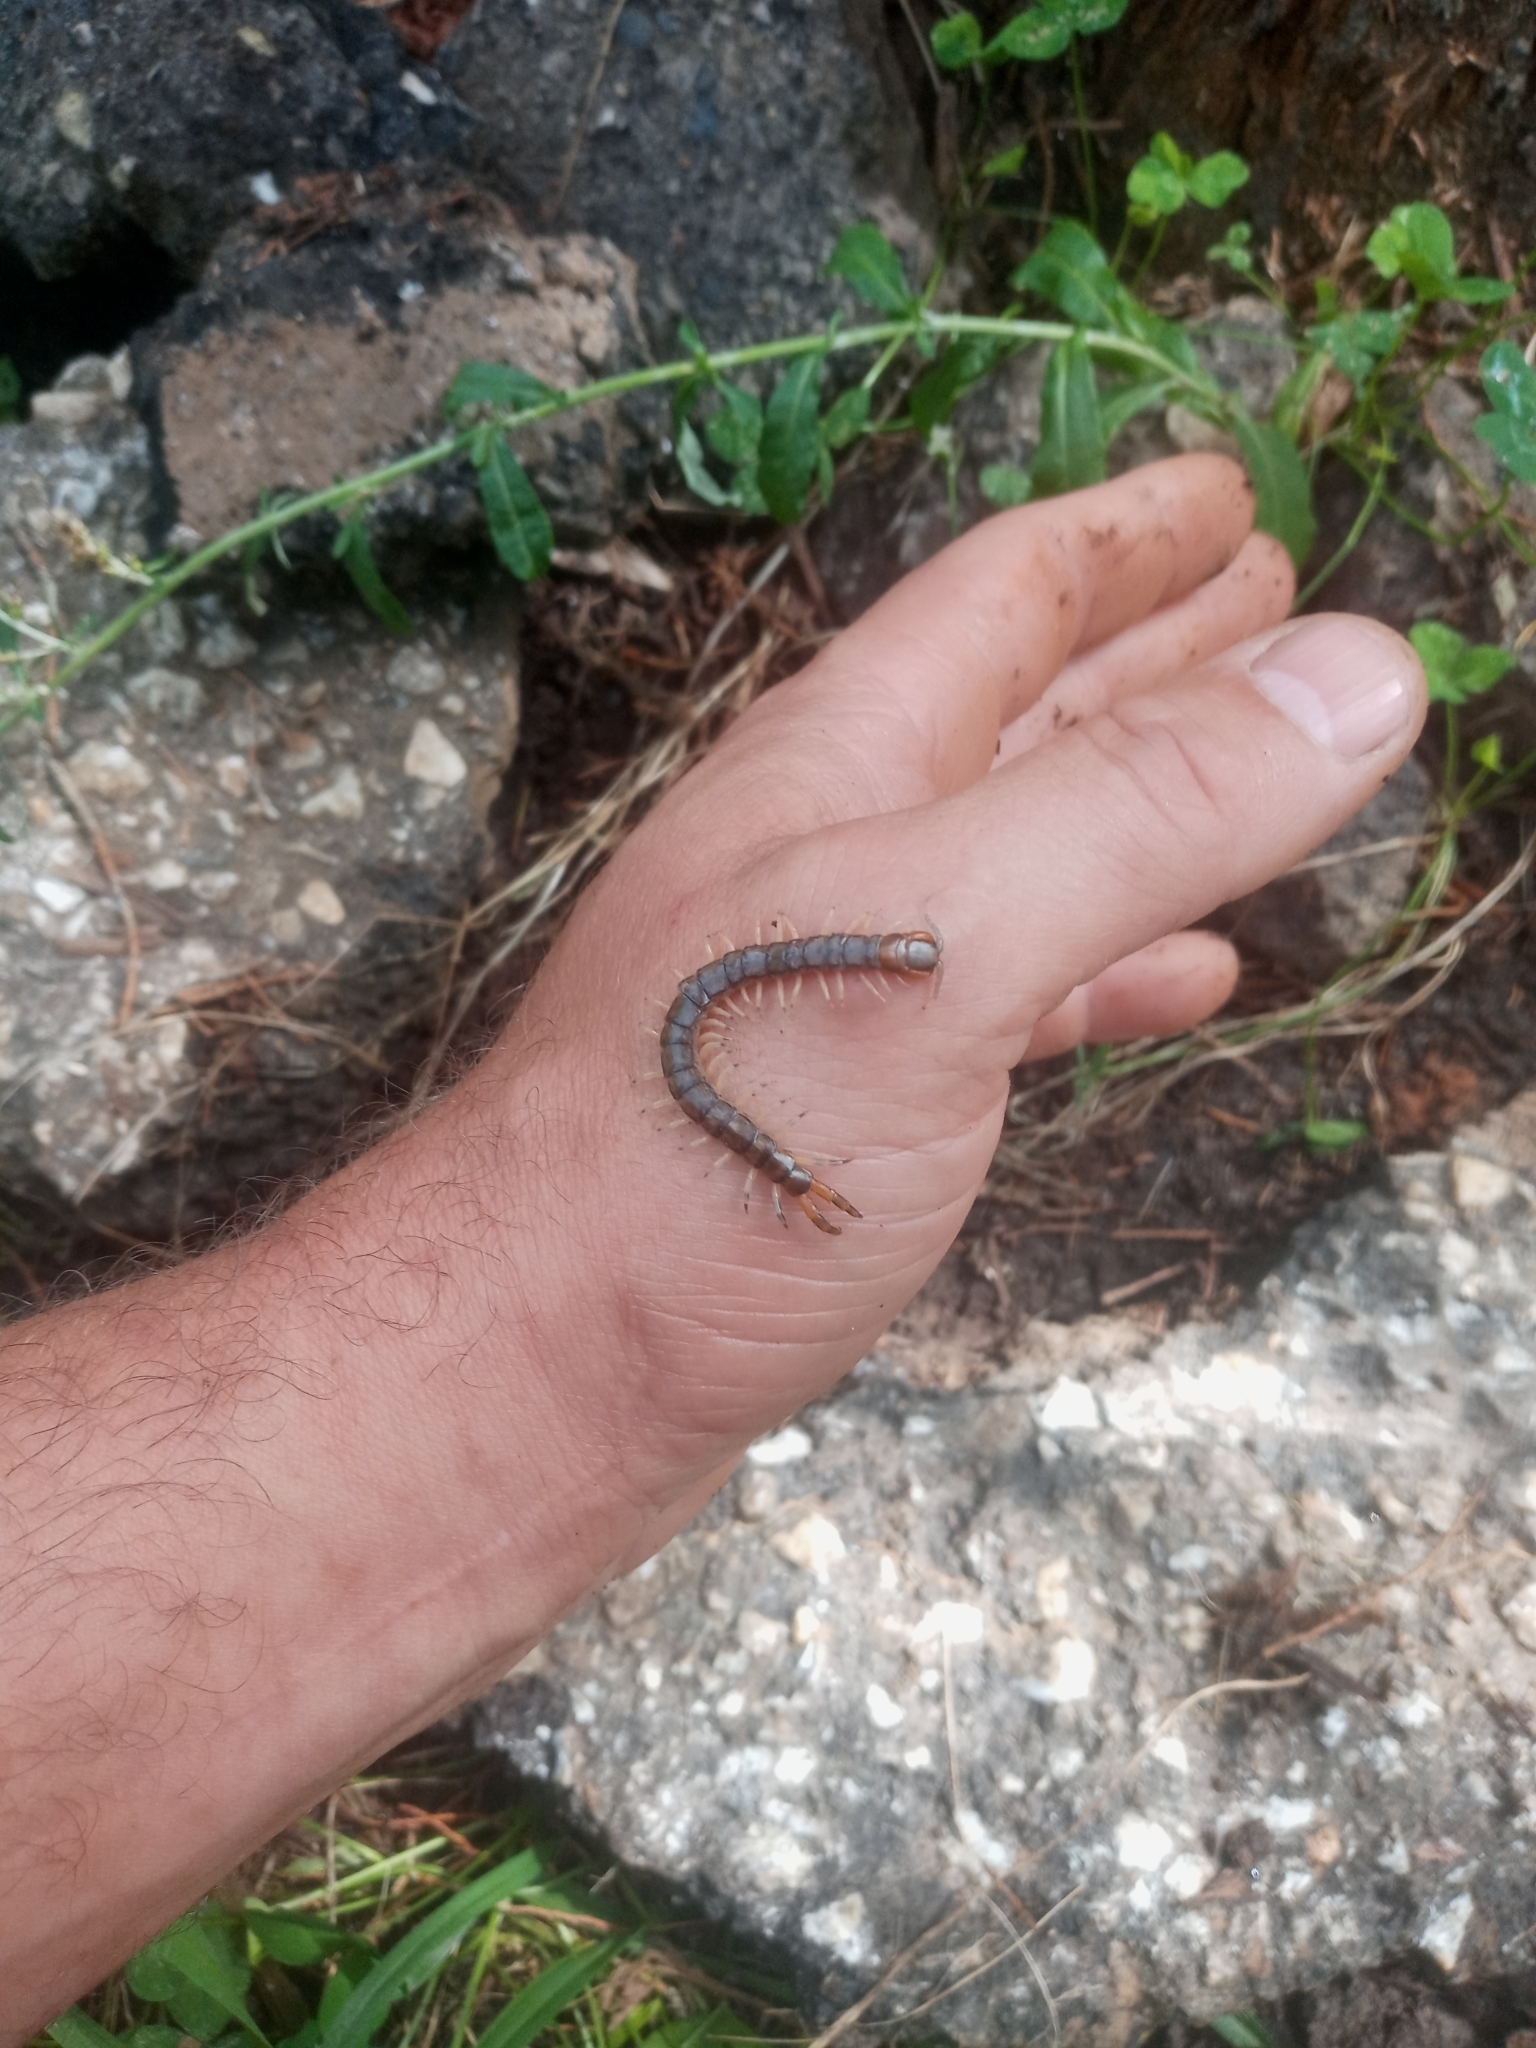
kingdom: Animalia
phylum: Arthropoda
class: Chilopoda
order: Scolopendromorpha
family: Scolopendridae
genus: Hemiscolopendra
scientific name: Hemiscolopendra marginata
